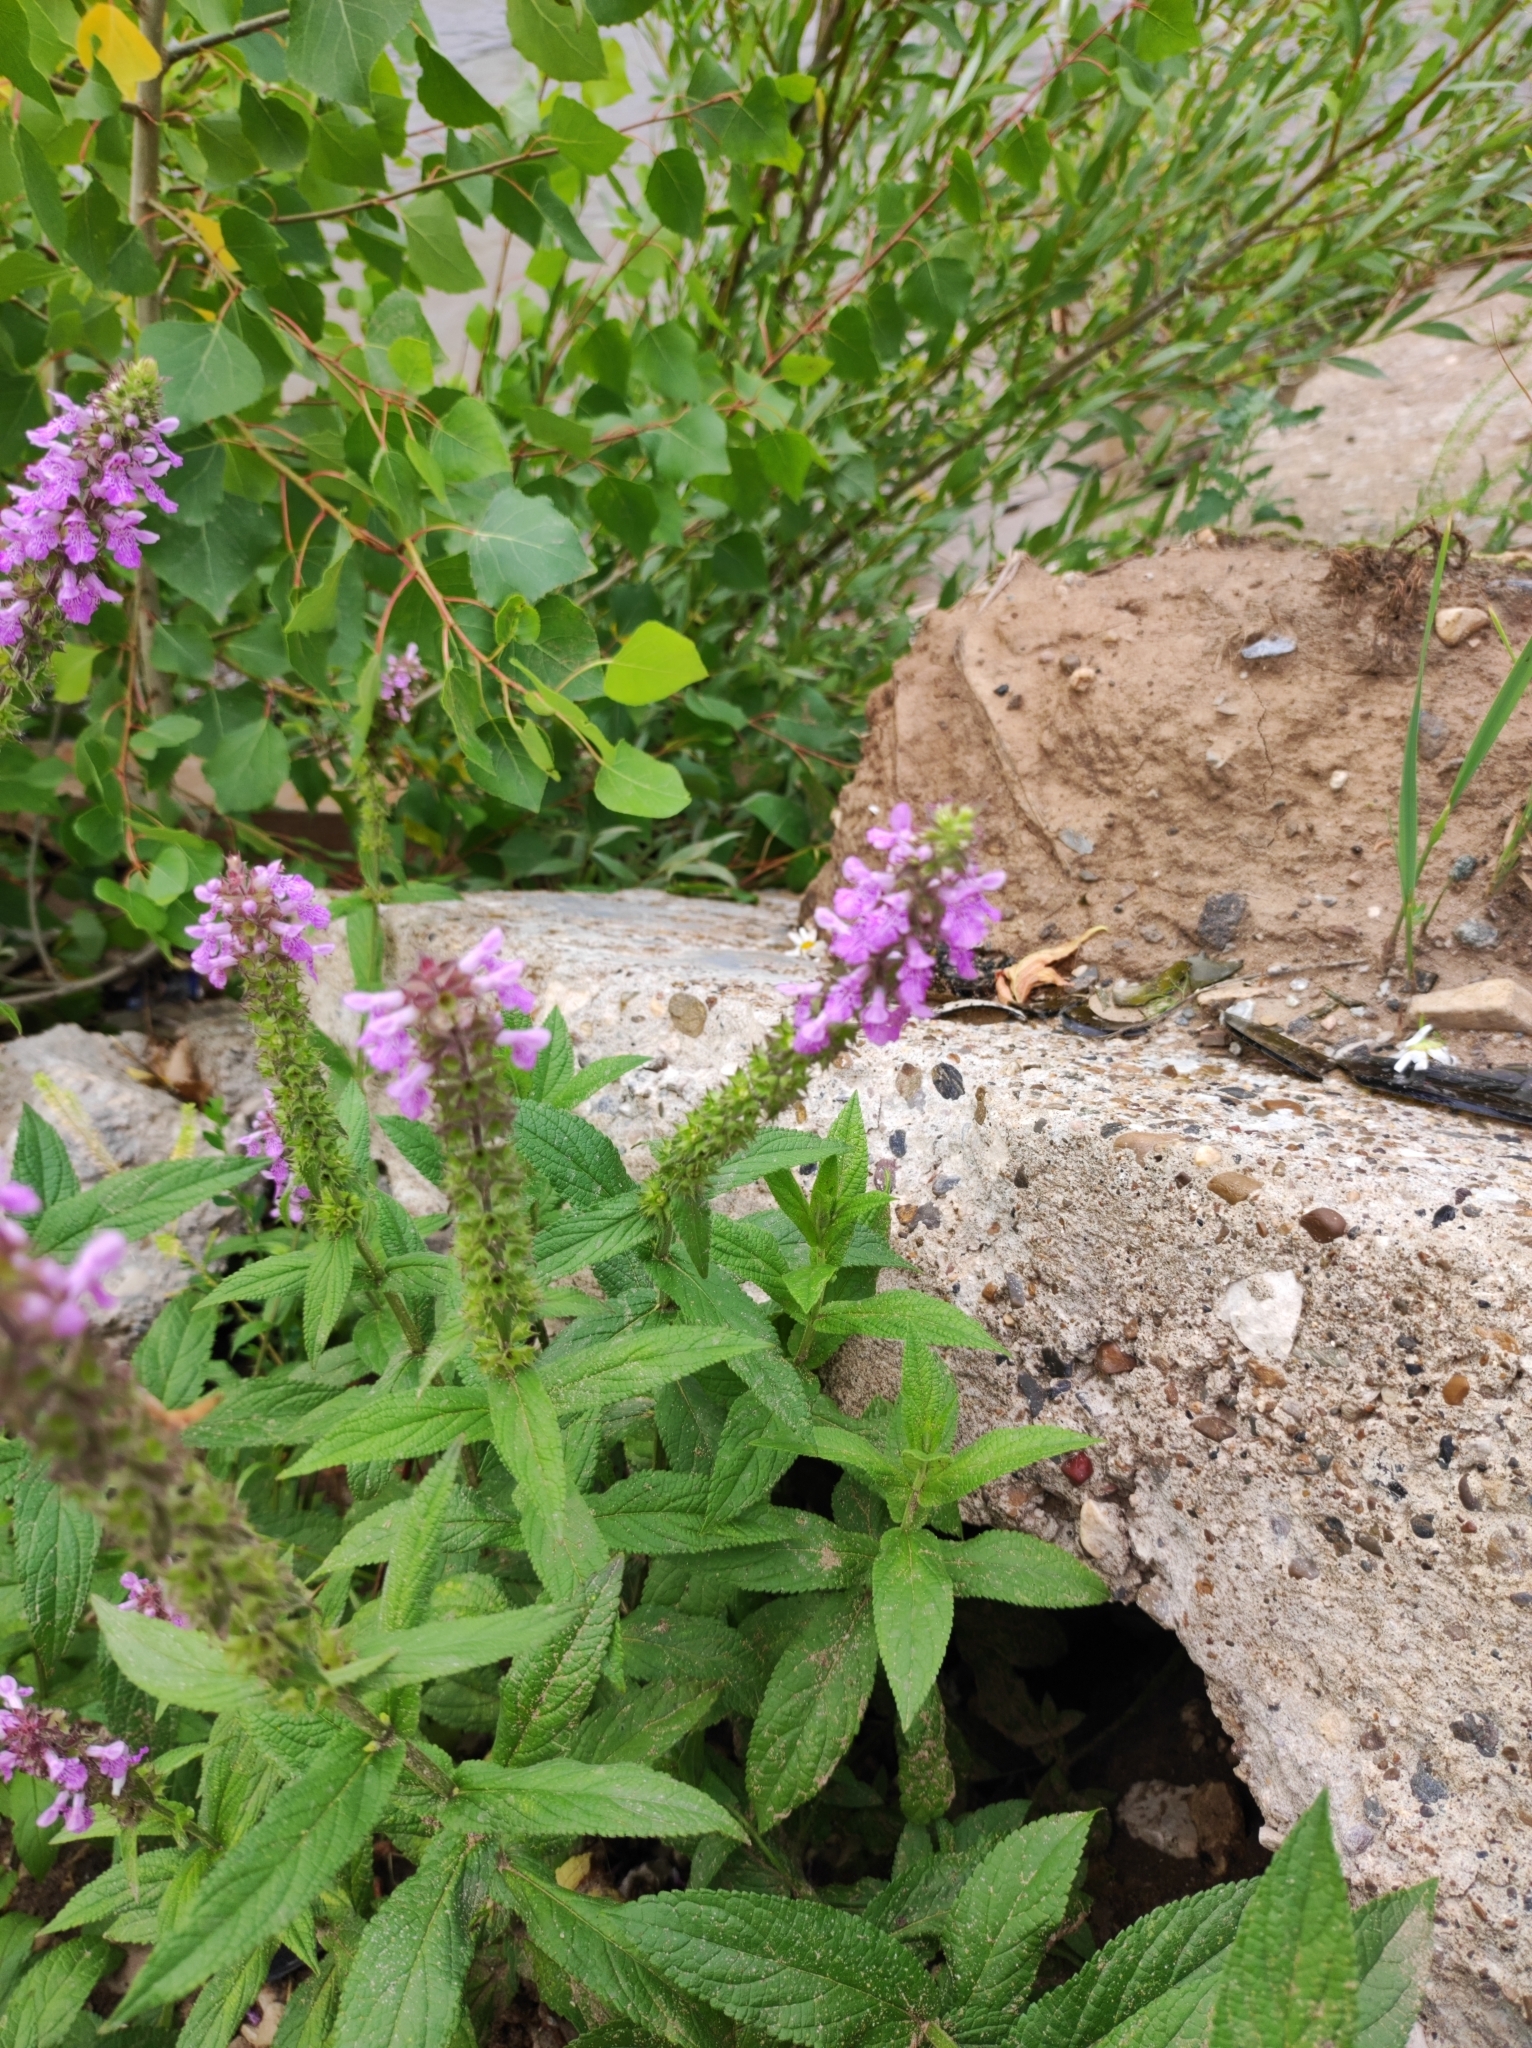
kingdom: Plantae
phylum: Tracheophyta
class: Magnoliopsida
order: Lamiales
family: Lamiaceae
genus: Stachys
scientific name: Stachys palustris
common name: Marsh woundwort
